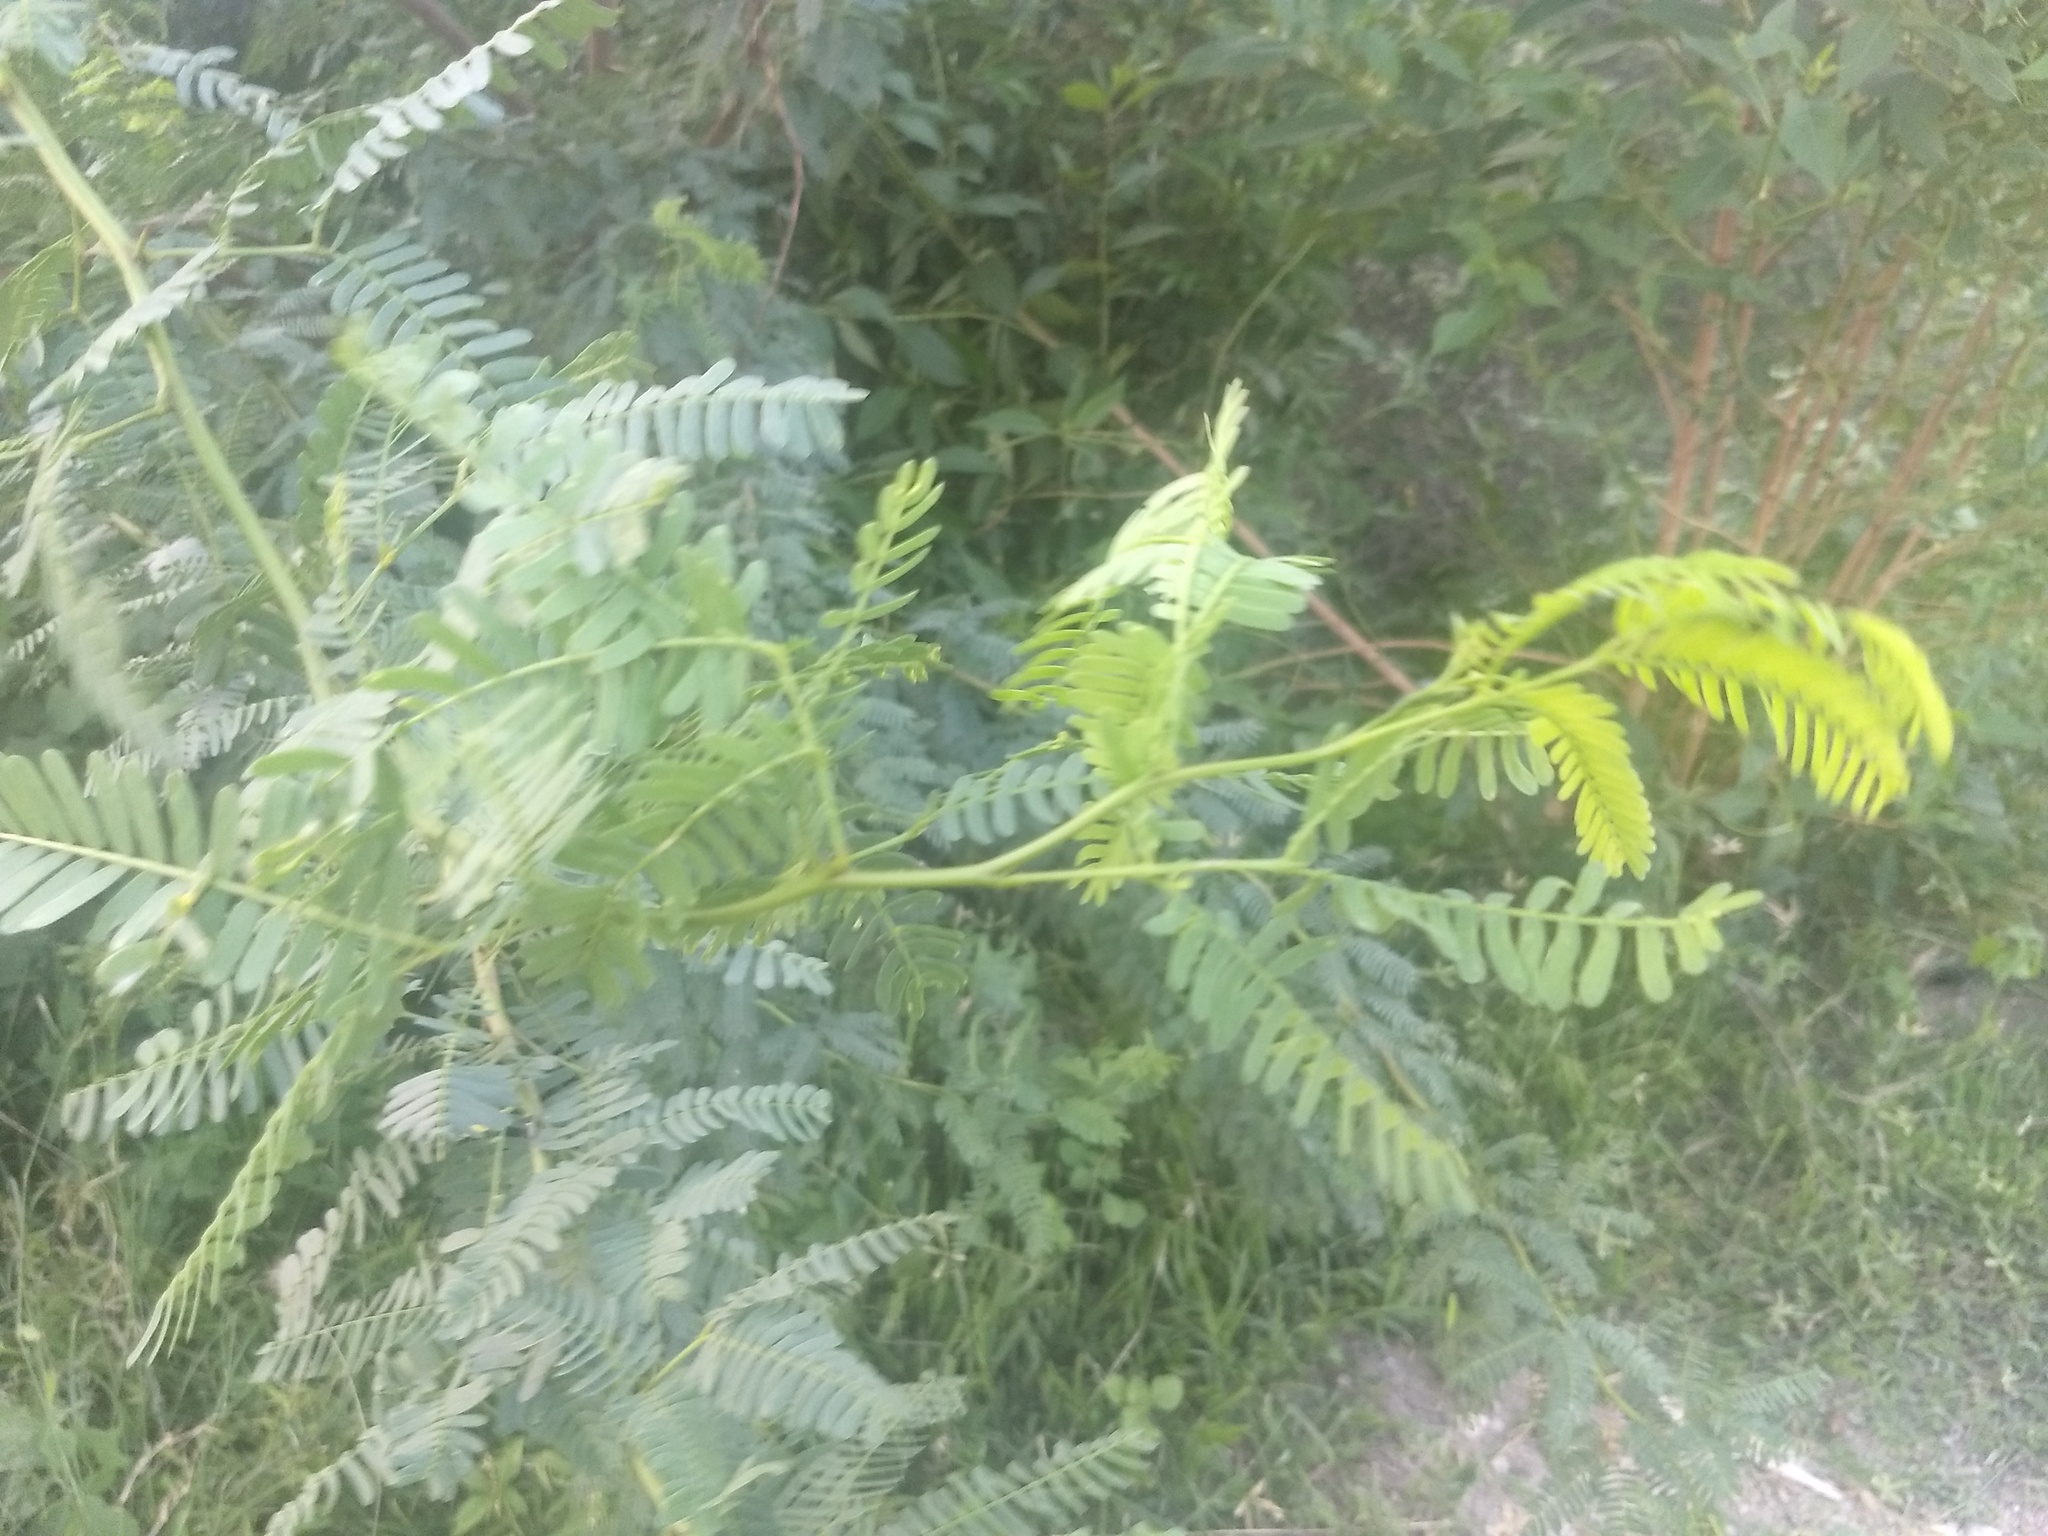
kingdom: Plantae
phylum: Tracheophyta
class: Magnoliopsida
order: Fabales
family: Fabaceae
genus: Prosopis
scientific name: Prosopis juliflora
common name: Mesquite
